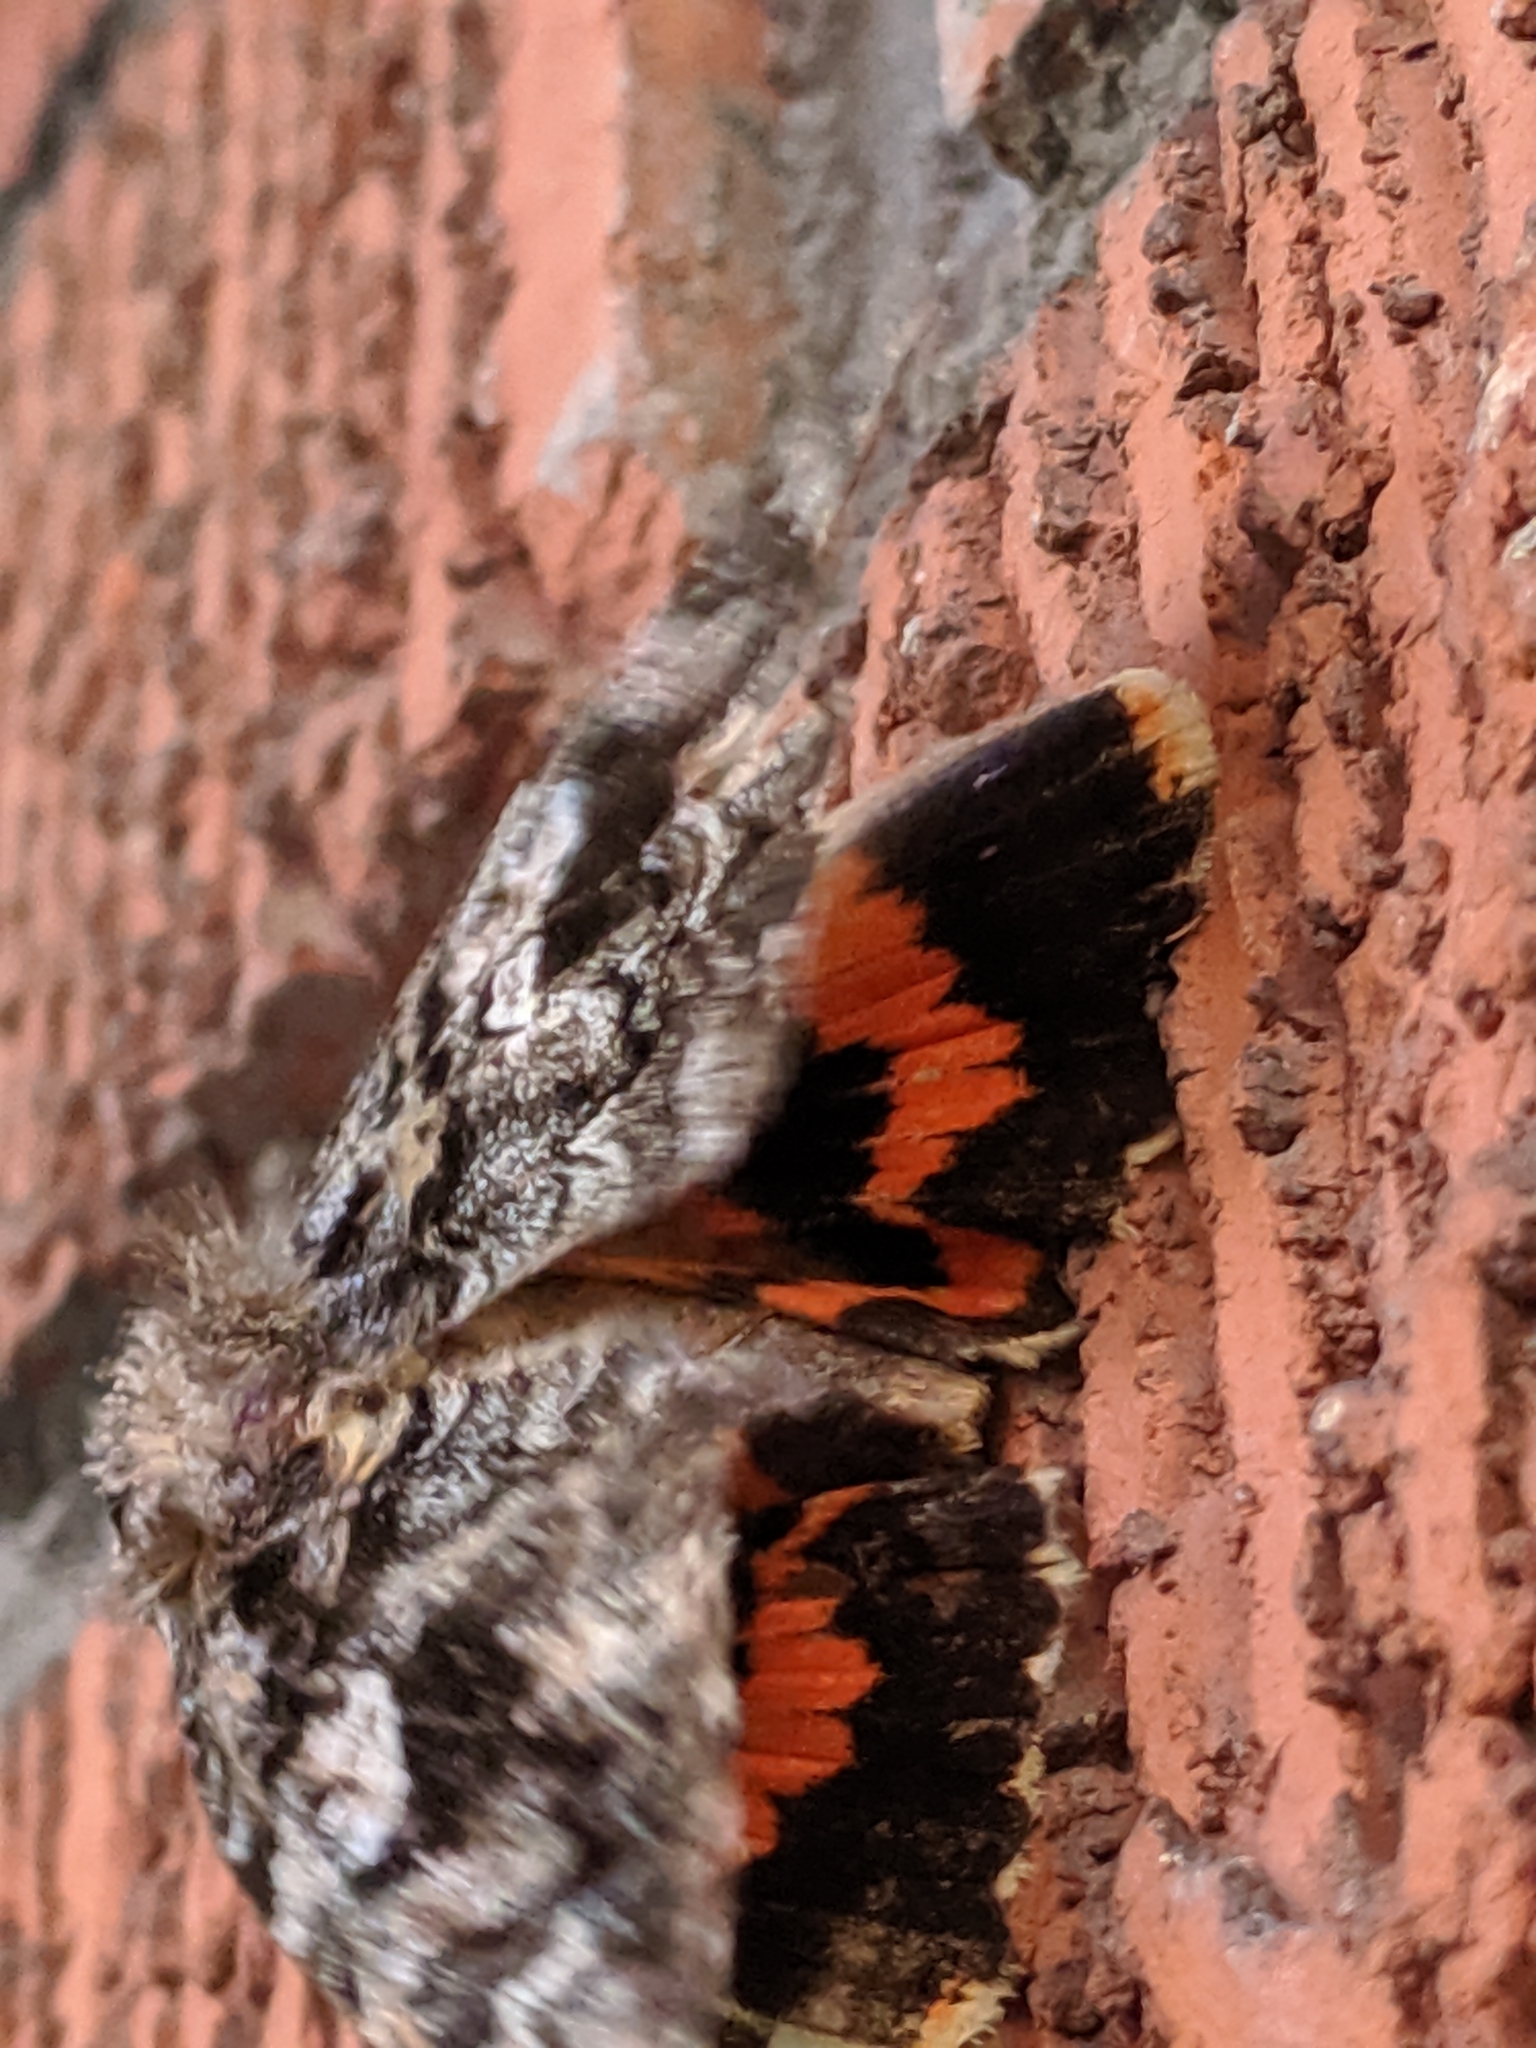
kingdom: Animalia
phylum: Arthropoda
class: Insecta
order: Lepidoptera
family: Erebidae
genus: Catocala
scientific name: Catocala ilia
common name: Ilia underwing
